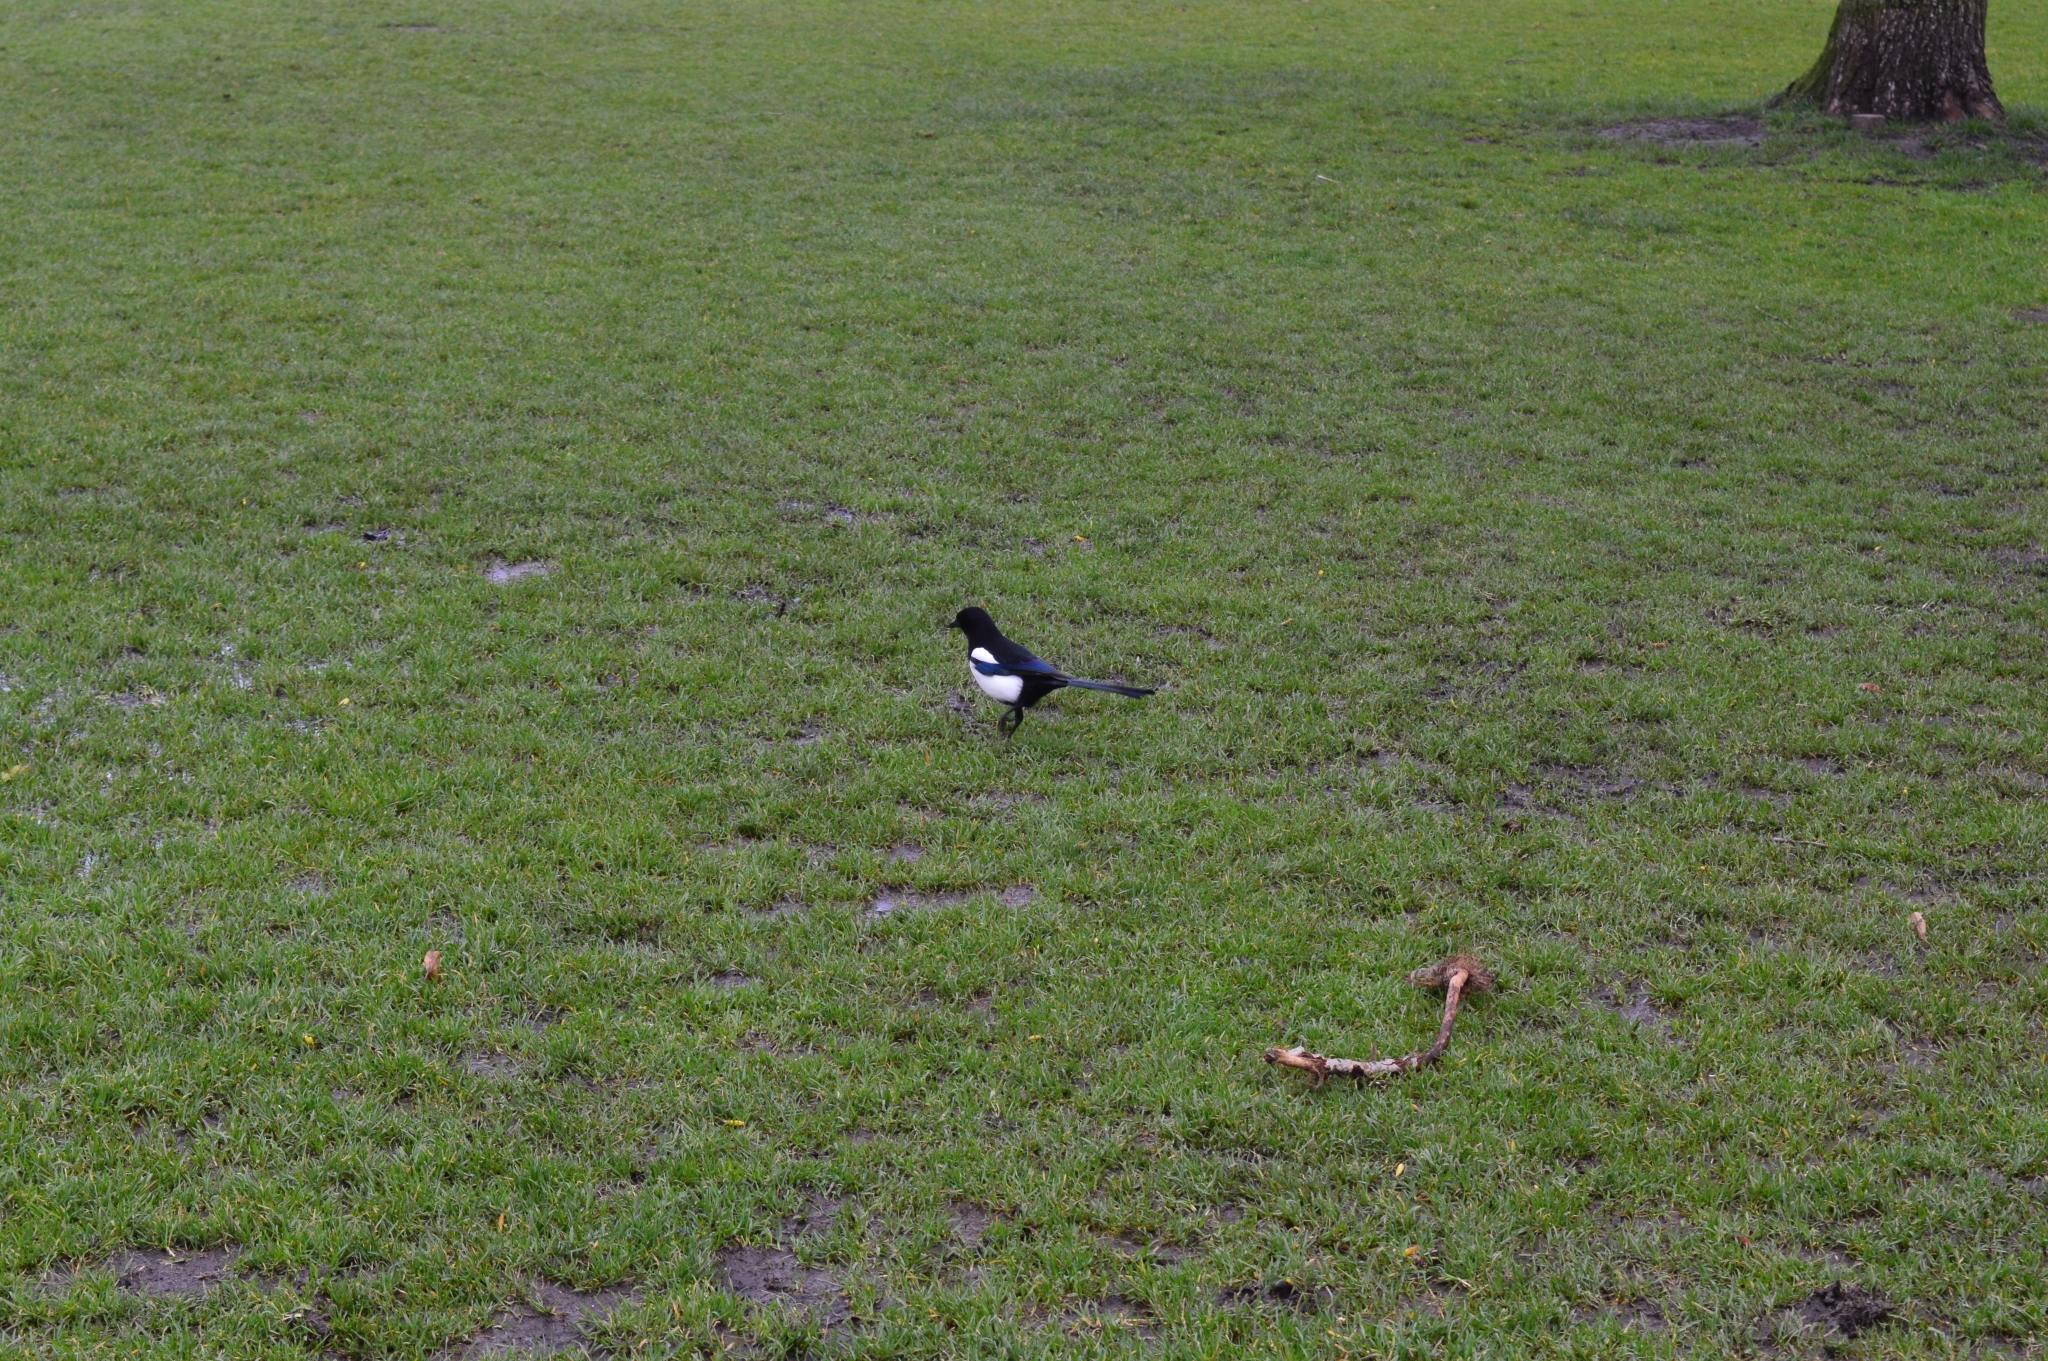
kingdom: Animalia
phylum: Chordata
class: Aves
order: Passeriformes
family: Corvidae
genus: Pica
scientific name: Pica pica
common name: Eurasian magpie
